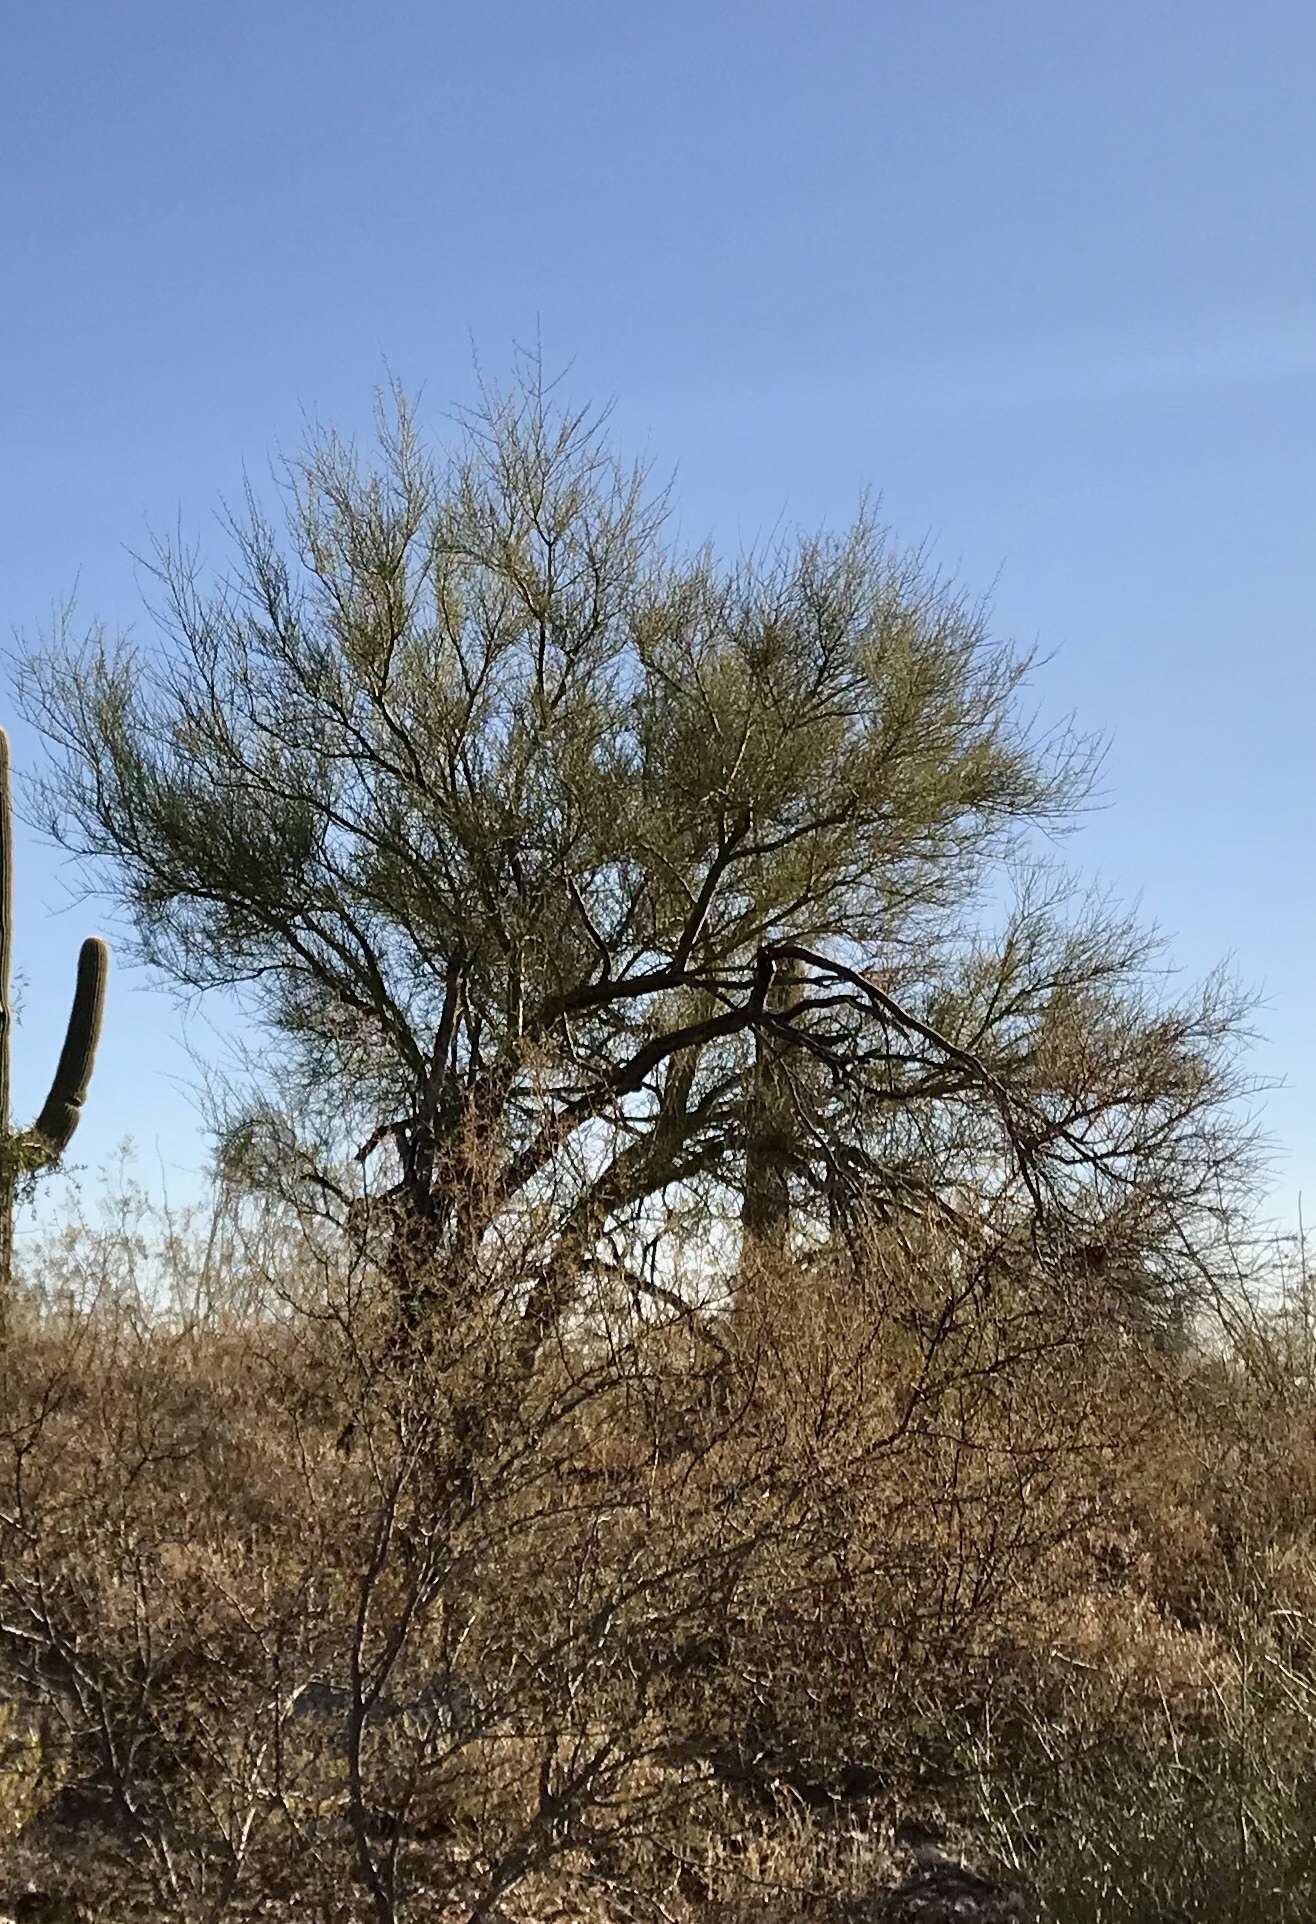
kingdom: Plantae
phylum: Tracheophyta
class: Magnoliopsida
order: Fabales
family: Fabaceae
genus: Parkinsonia
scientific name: Parkinsonia microphylla
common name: Yellow paloverde
